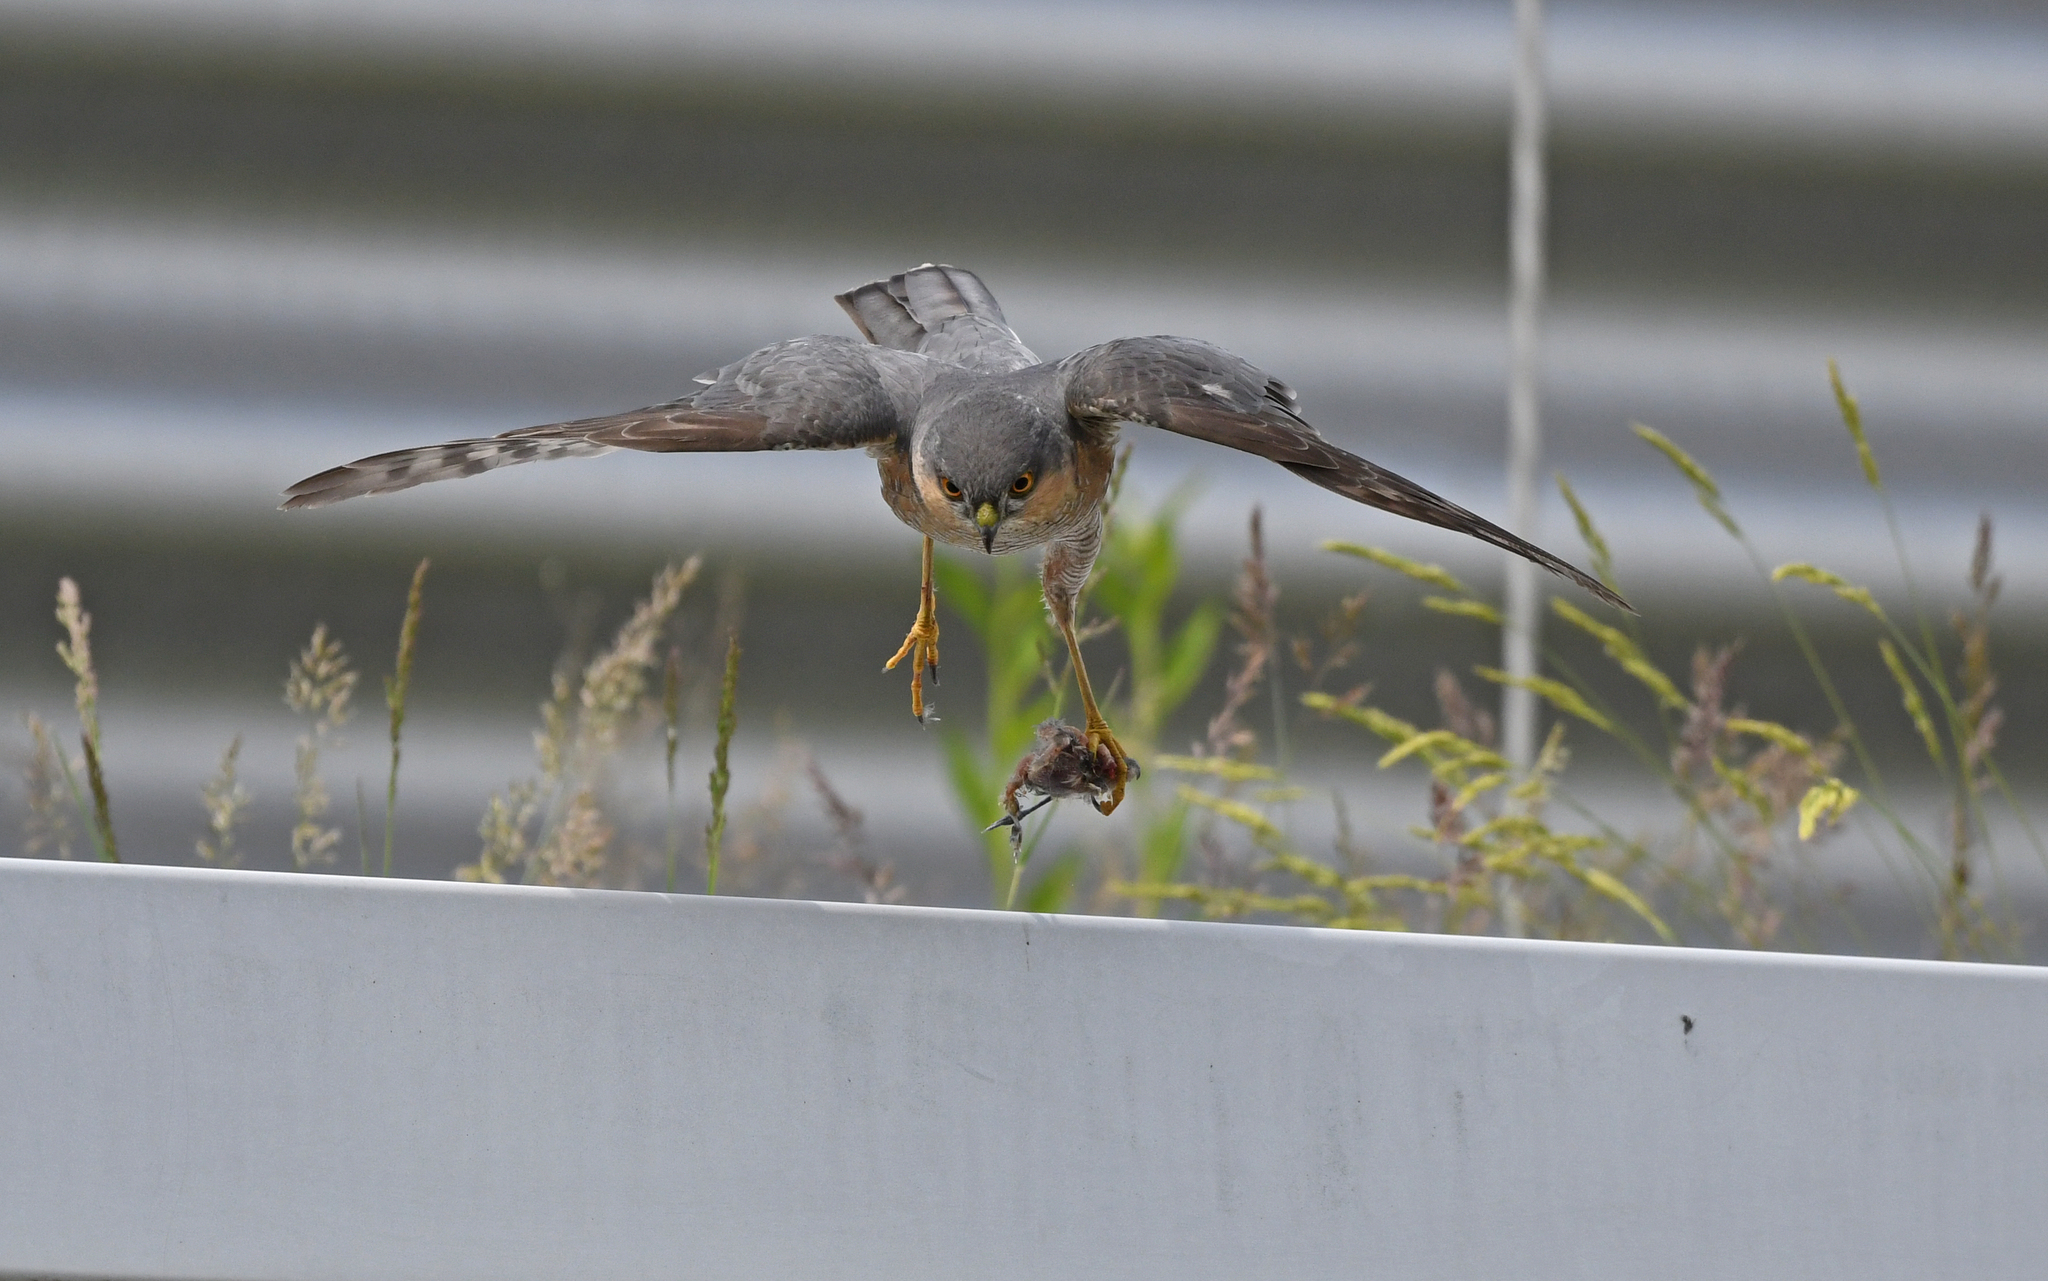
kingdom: Animalia
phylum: Chordata
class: Aves
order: Accipitriformes
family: Accipitridae
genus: Accipiter
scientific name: Accipiter nisus
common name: Eurasian sparrowhawk
